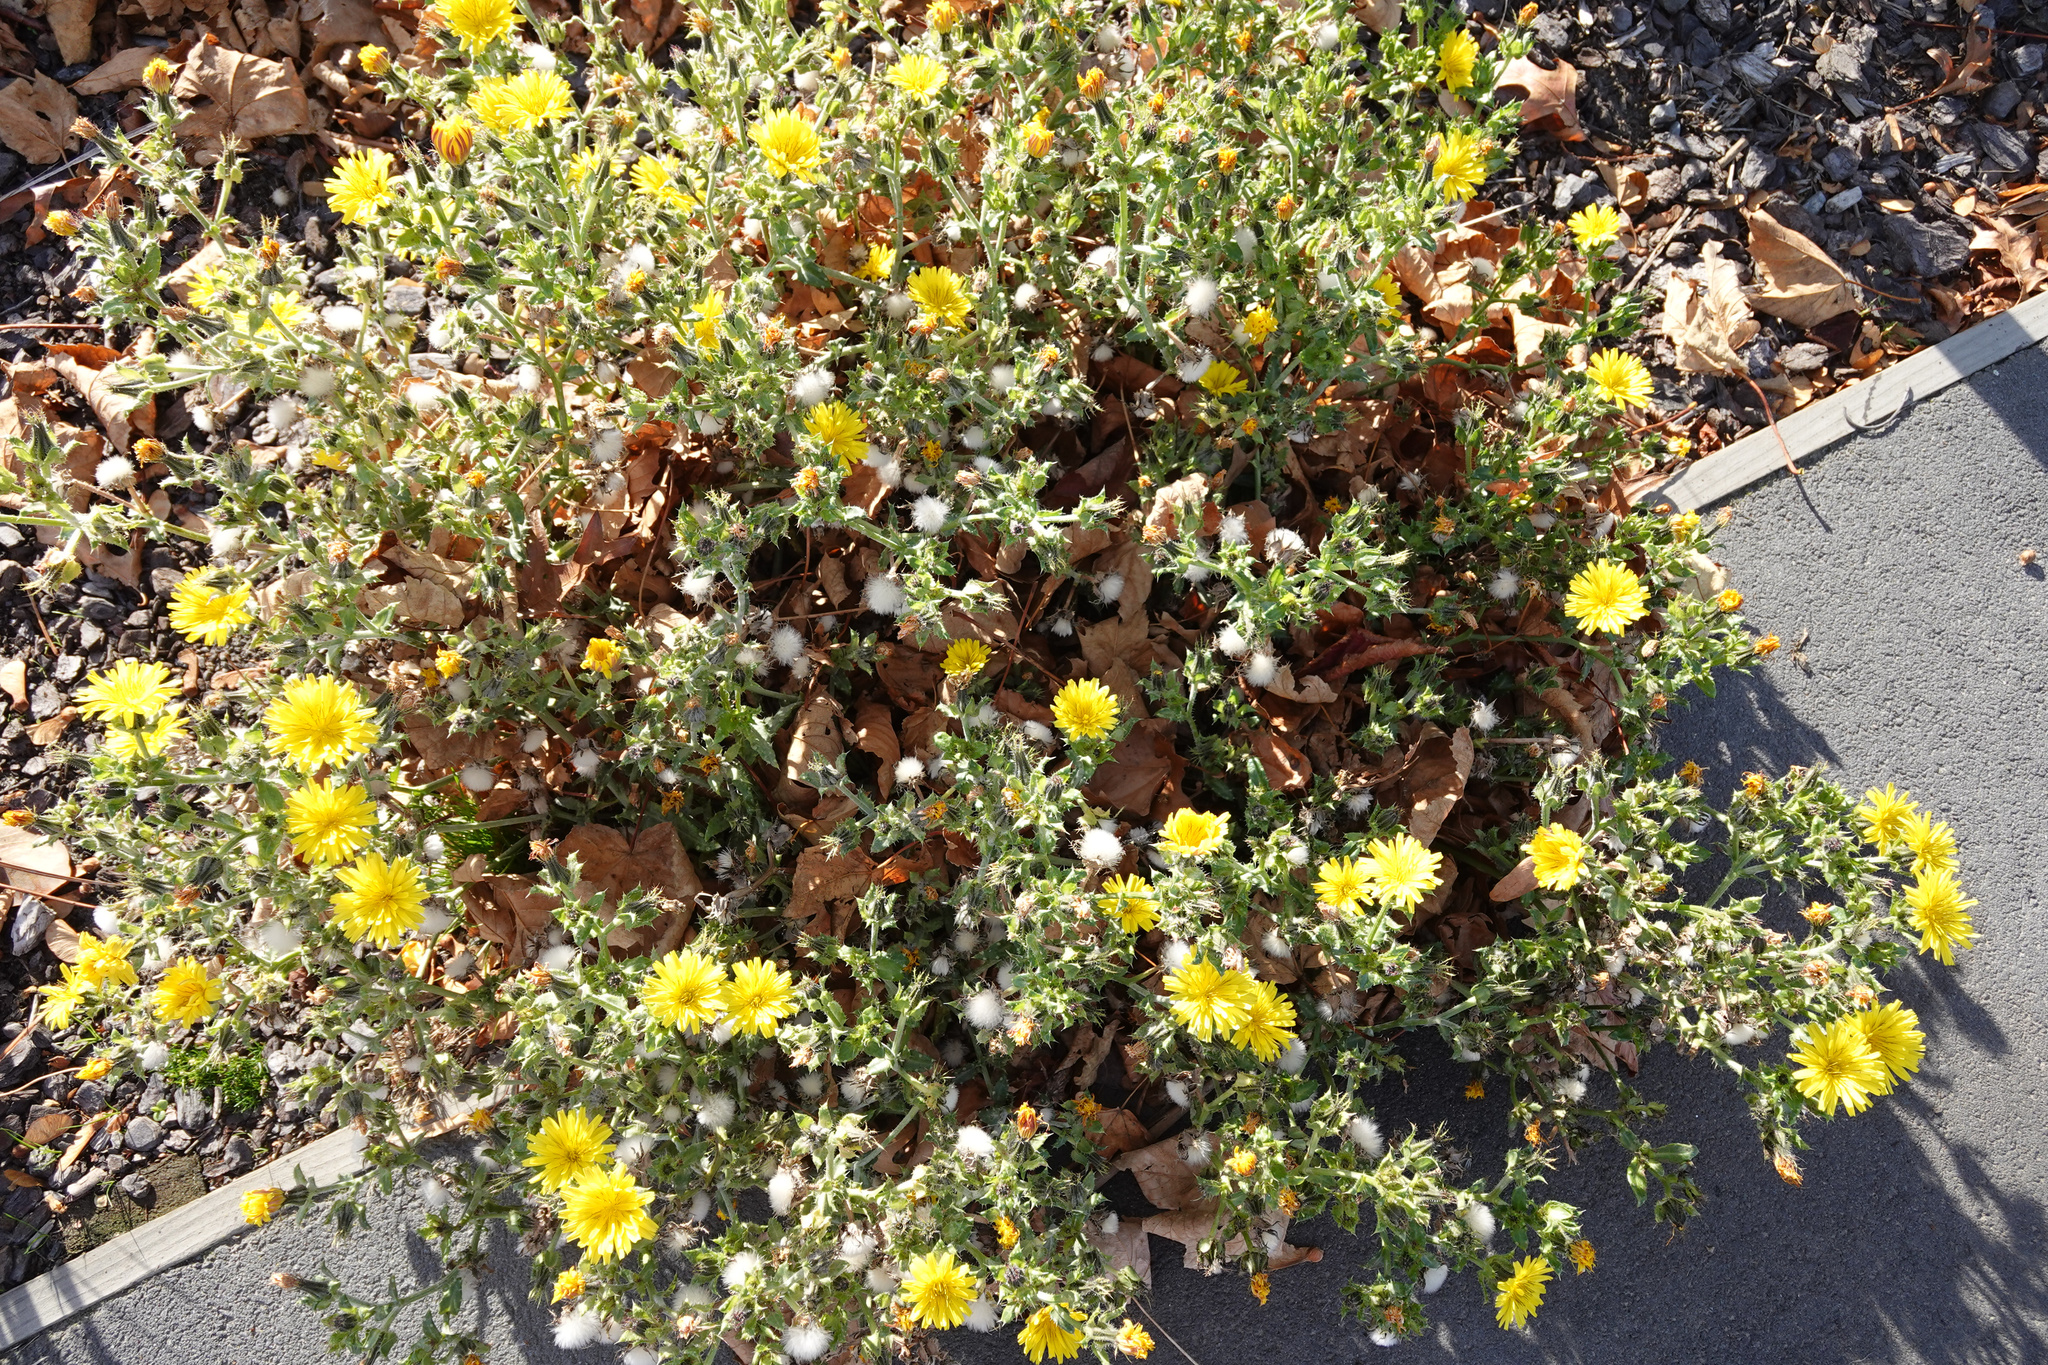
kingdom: Plantae
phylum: Tracheophyta
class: Magnoliopsida
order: Asterales
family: Asteraceae
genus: Helminthotheca
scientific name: Helminthotheca echioides
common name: Ox-tongue
